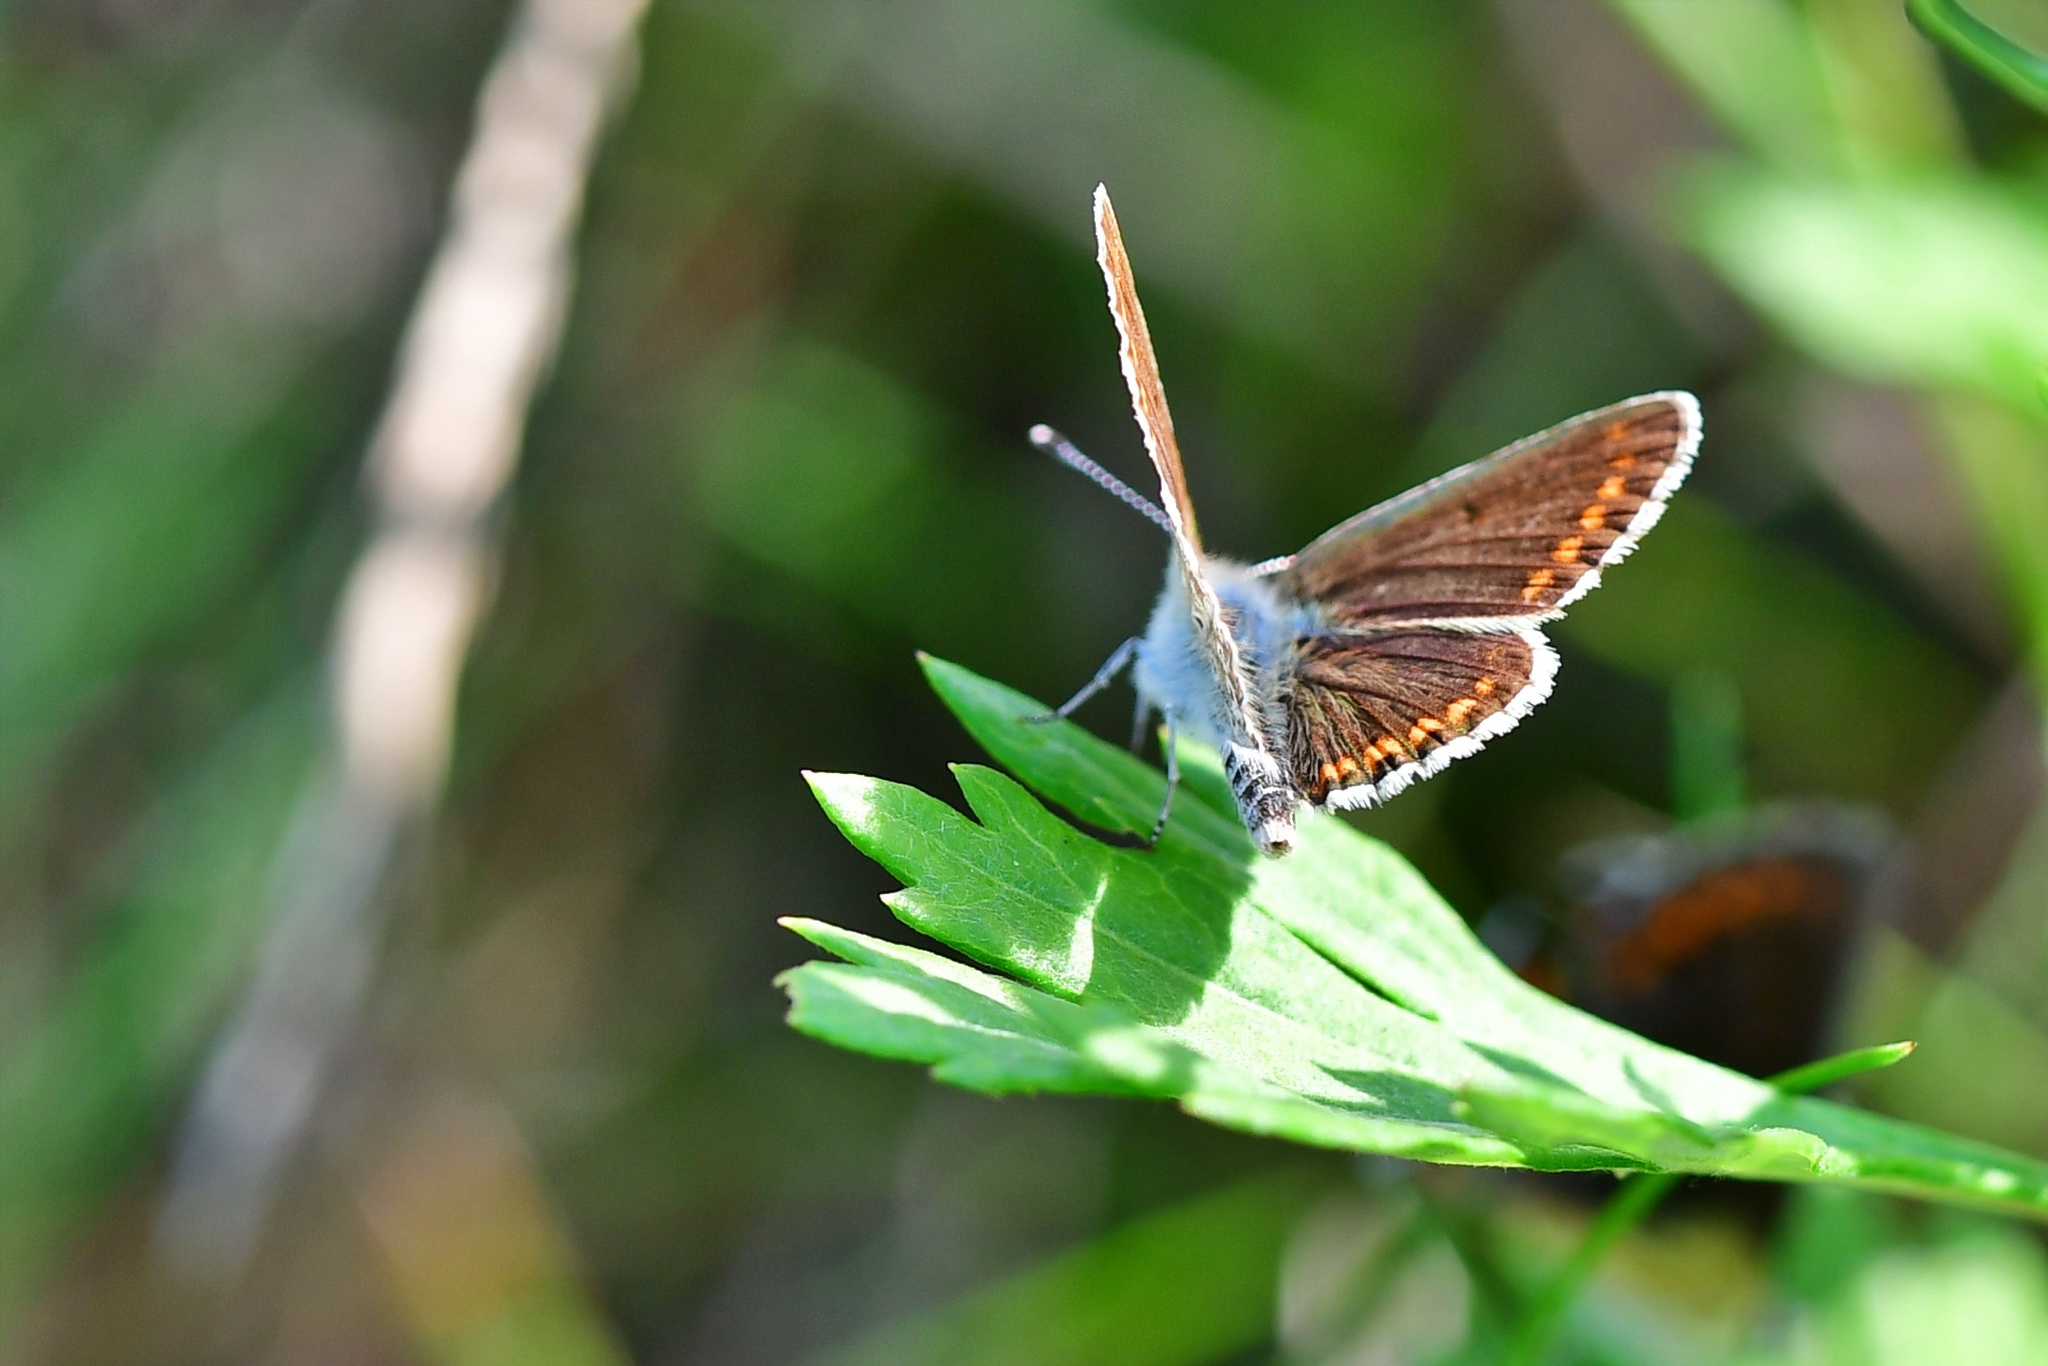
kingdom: Animalia
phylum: Arthropoda
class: Insecta
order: Lepidoptera
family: Lycaenidae
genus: Aricia
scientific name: Aricia agestis
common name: Brown argus
